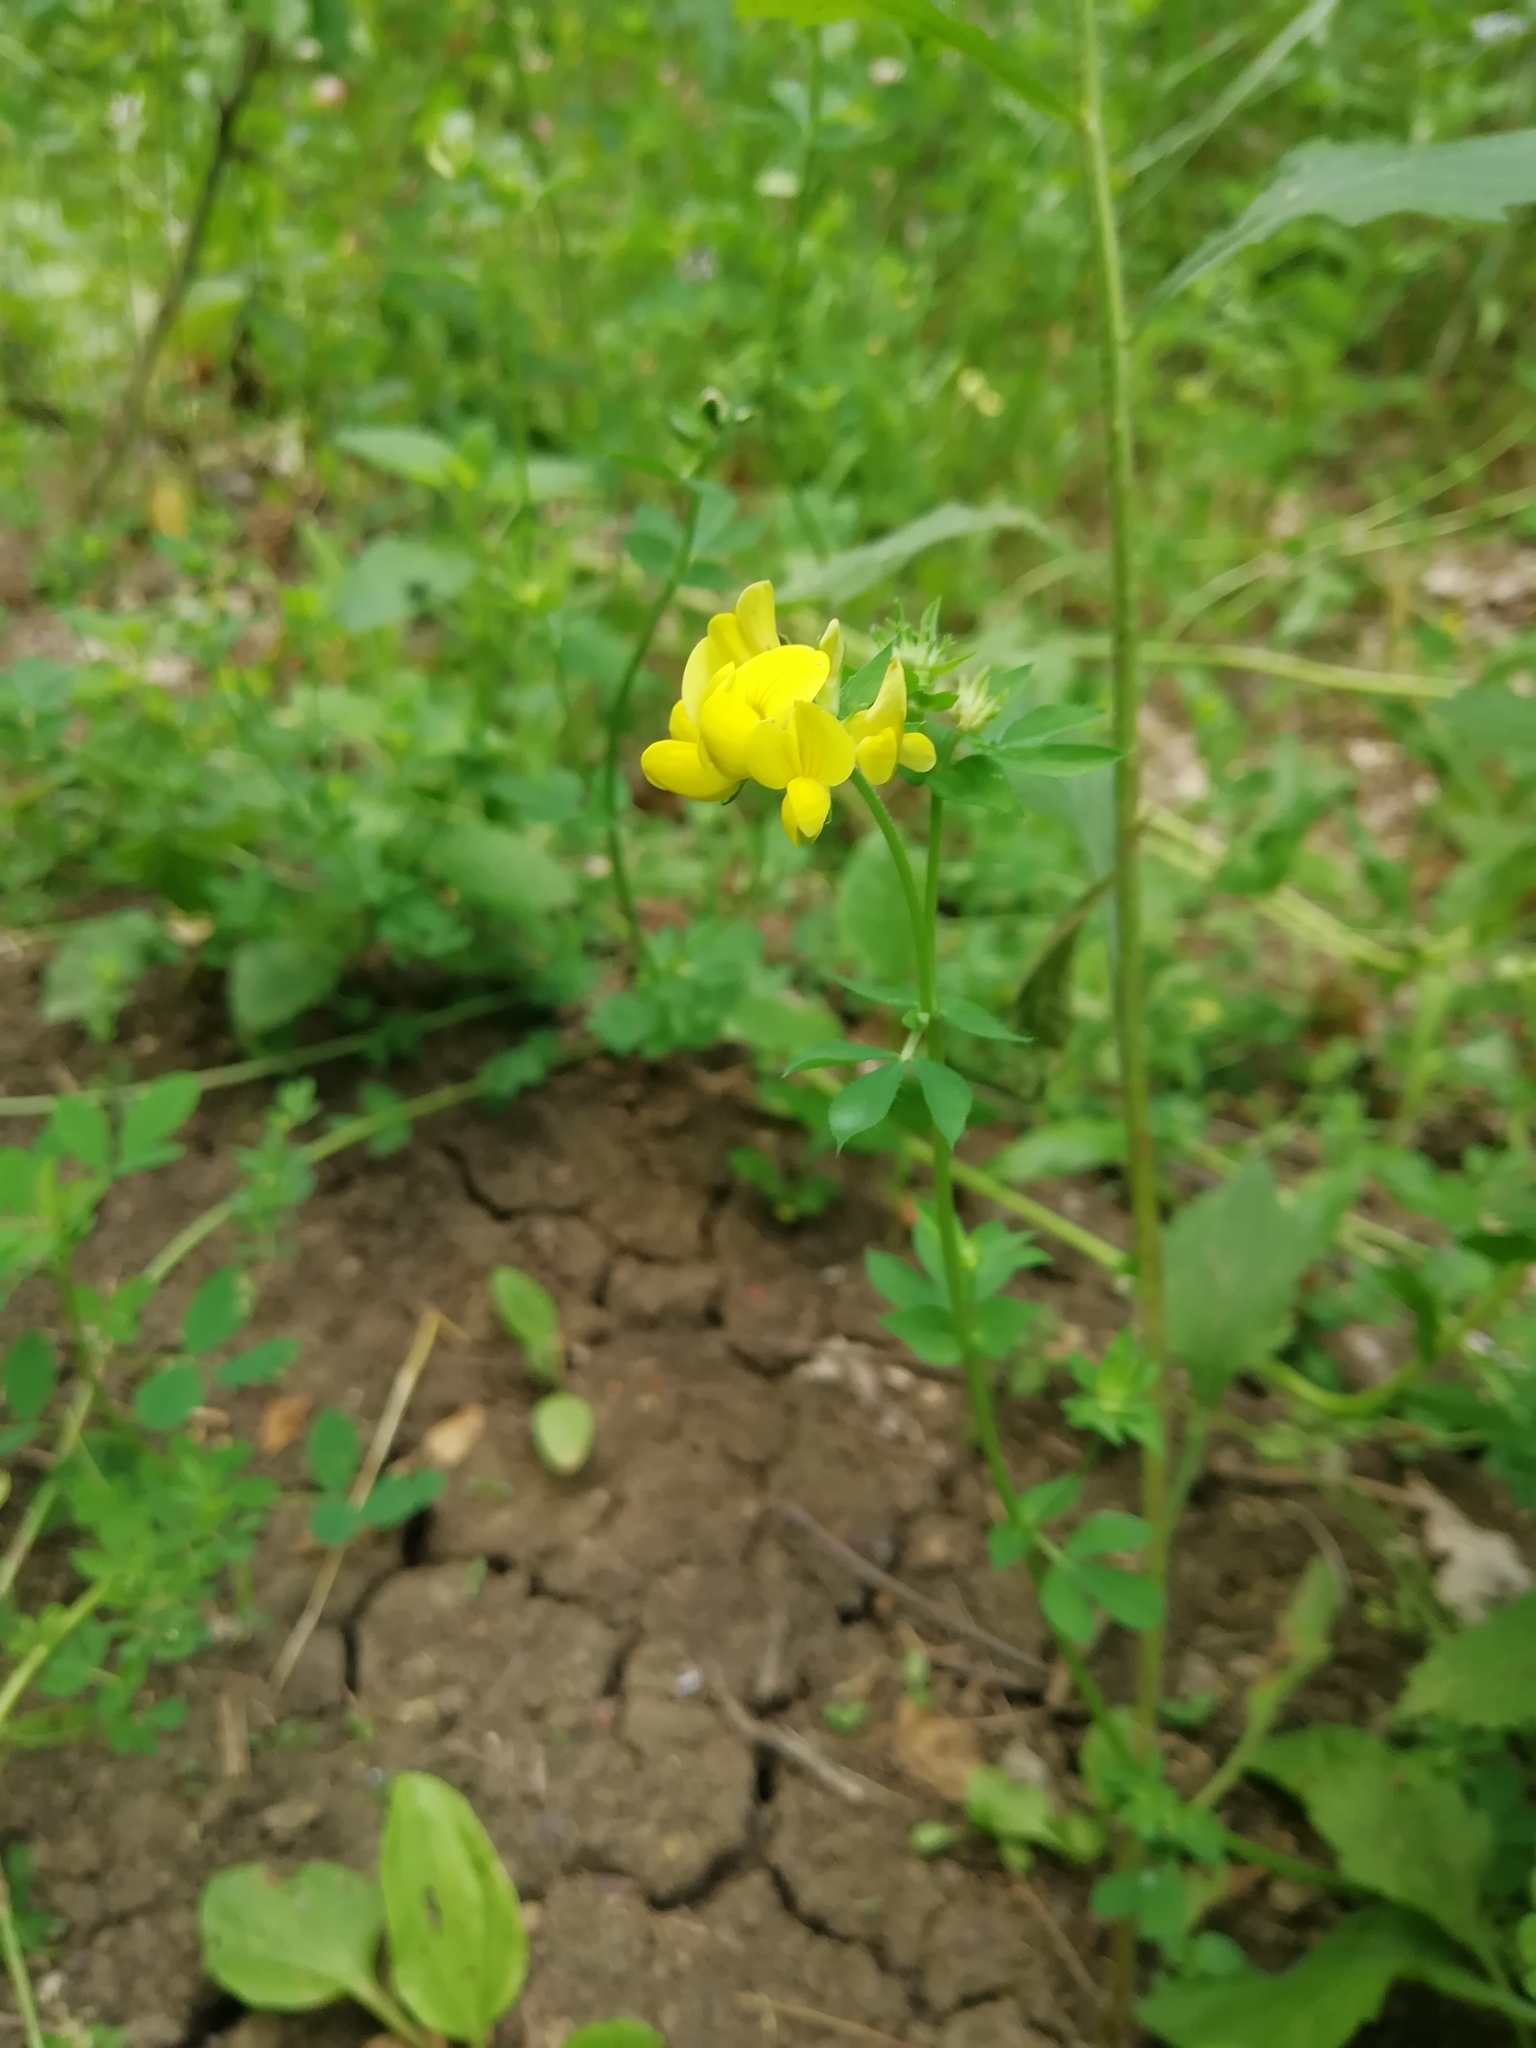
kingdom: Plantae
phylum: Tracheophyta
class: Magnoliopsida
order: Fabales
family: Fabaceae
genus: Lotus
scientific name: Lotus corniculatus
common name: Common bird's-foot-trefoil
